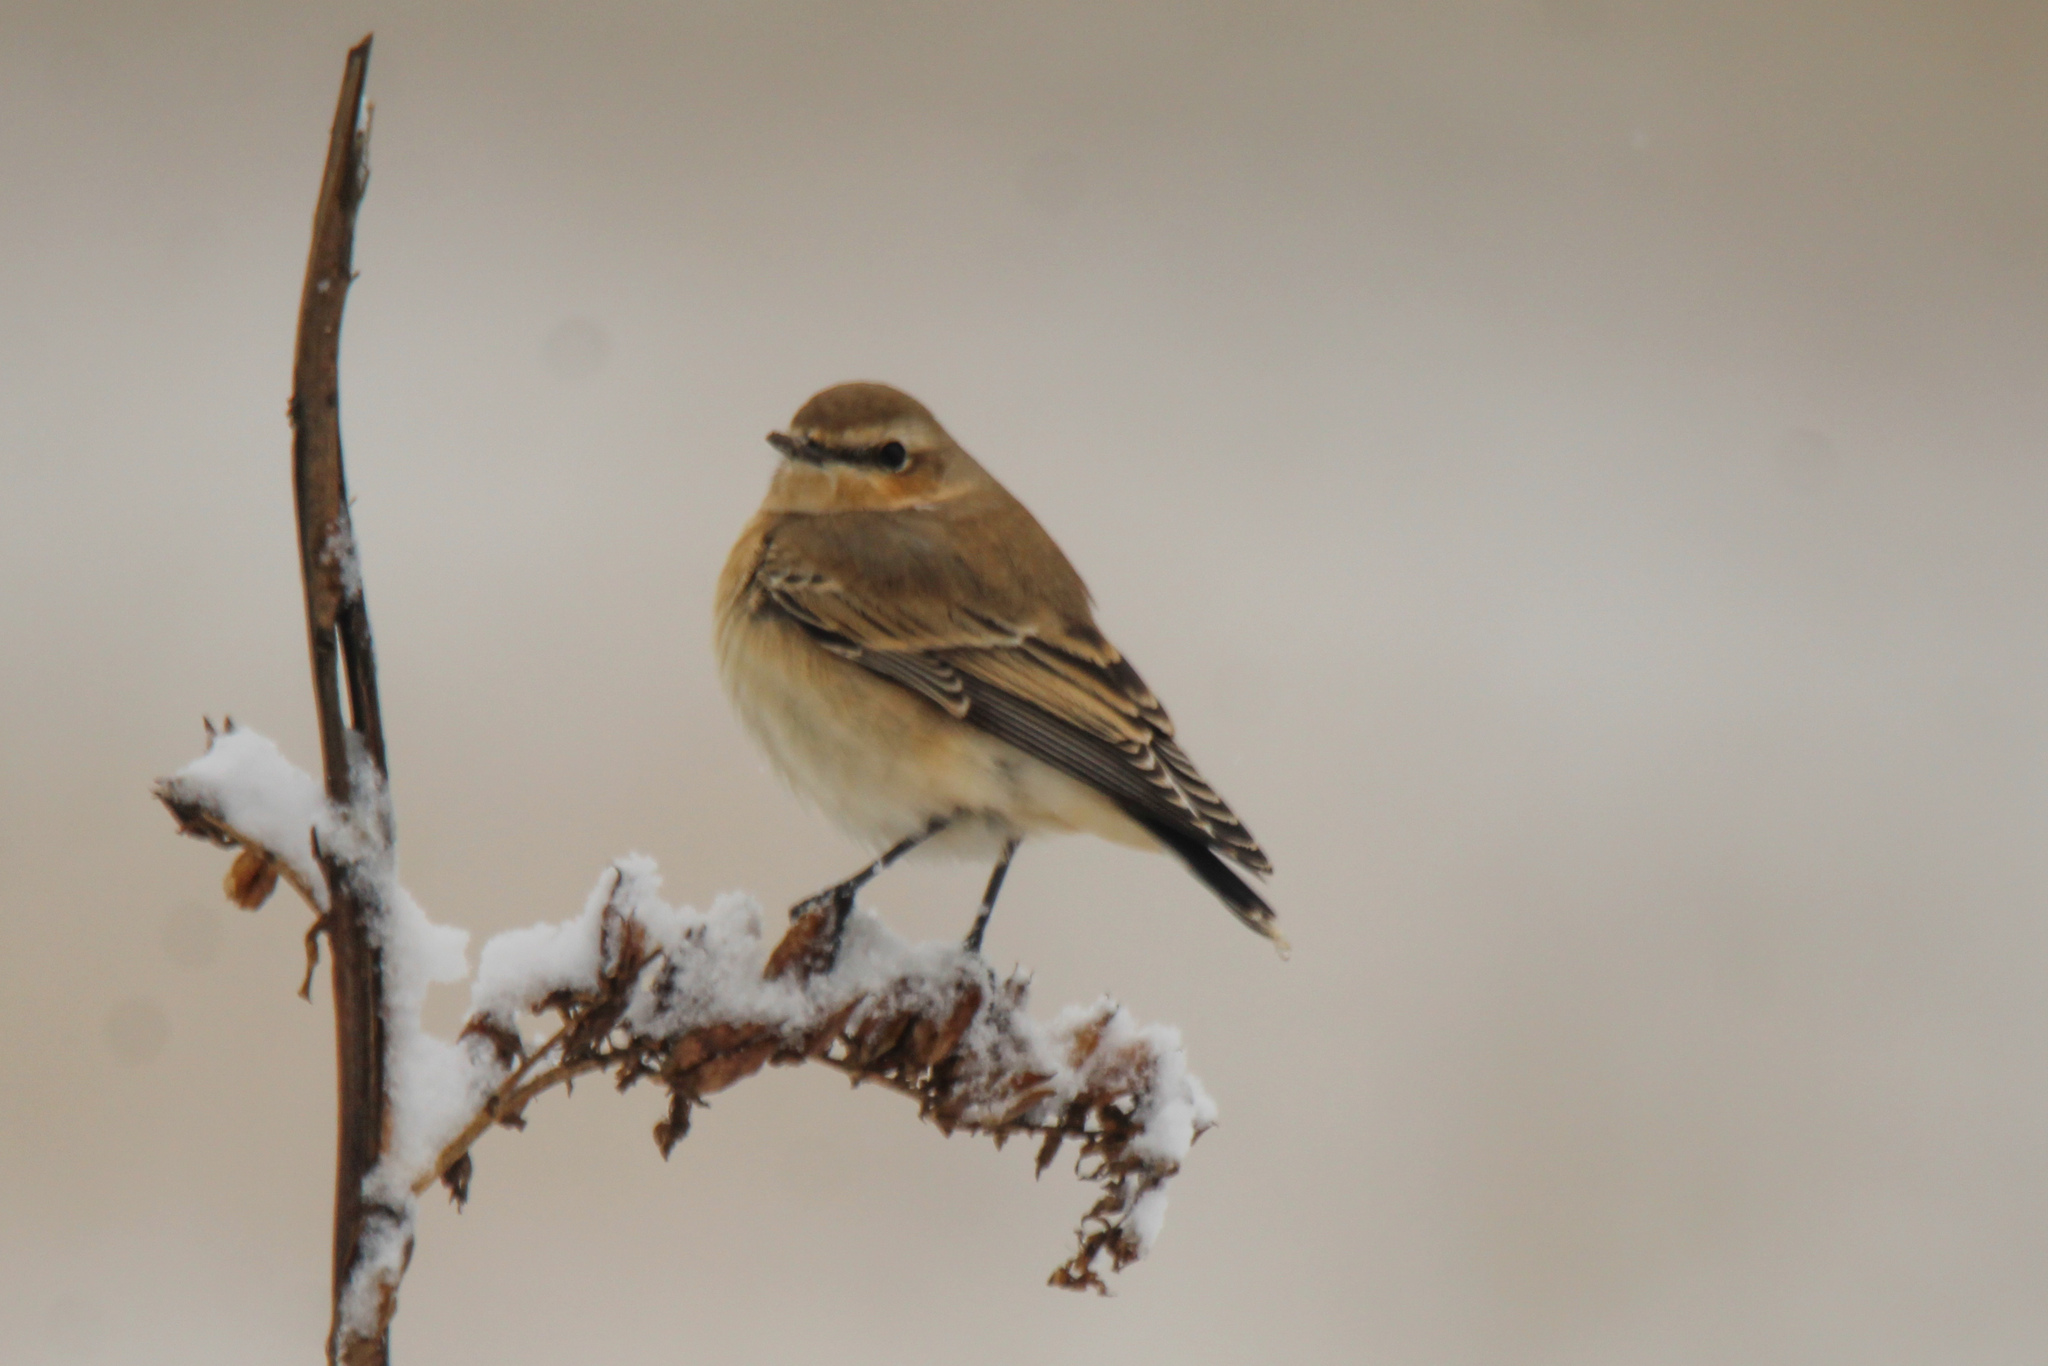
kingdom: Animalia
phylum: Chordata
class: Aves
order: Passeriformes
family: Muscicapidae
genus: Oenanthe
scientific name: Oenanthe oenanthe
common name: Northern wheatear
